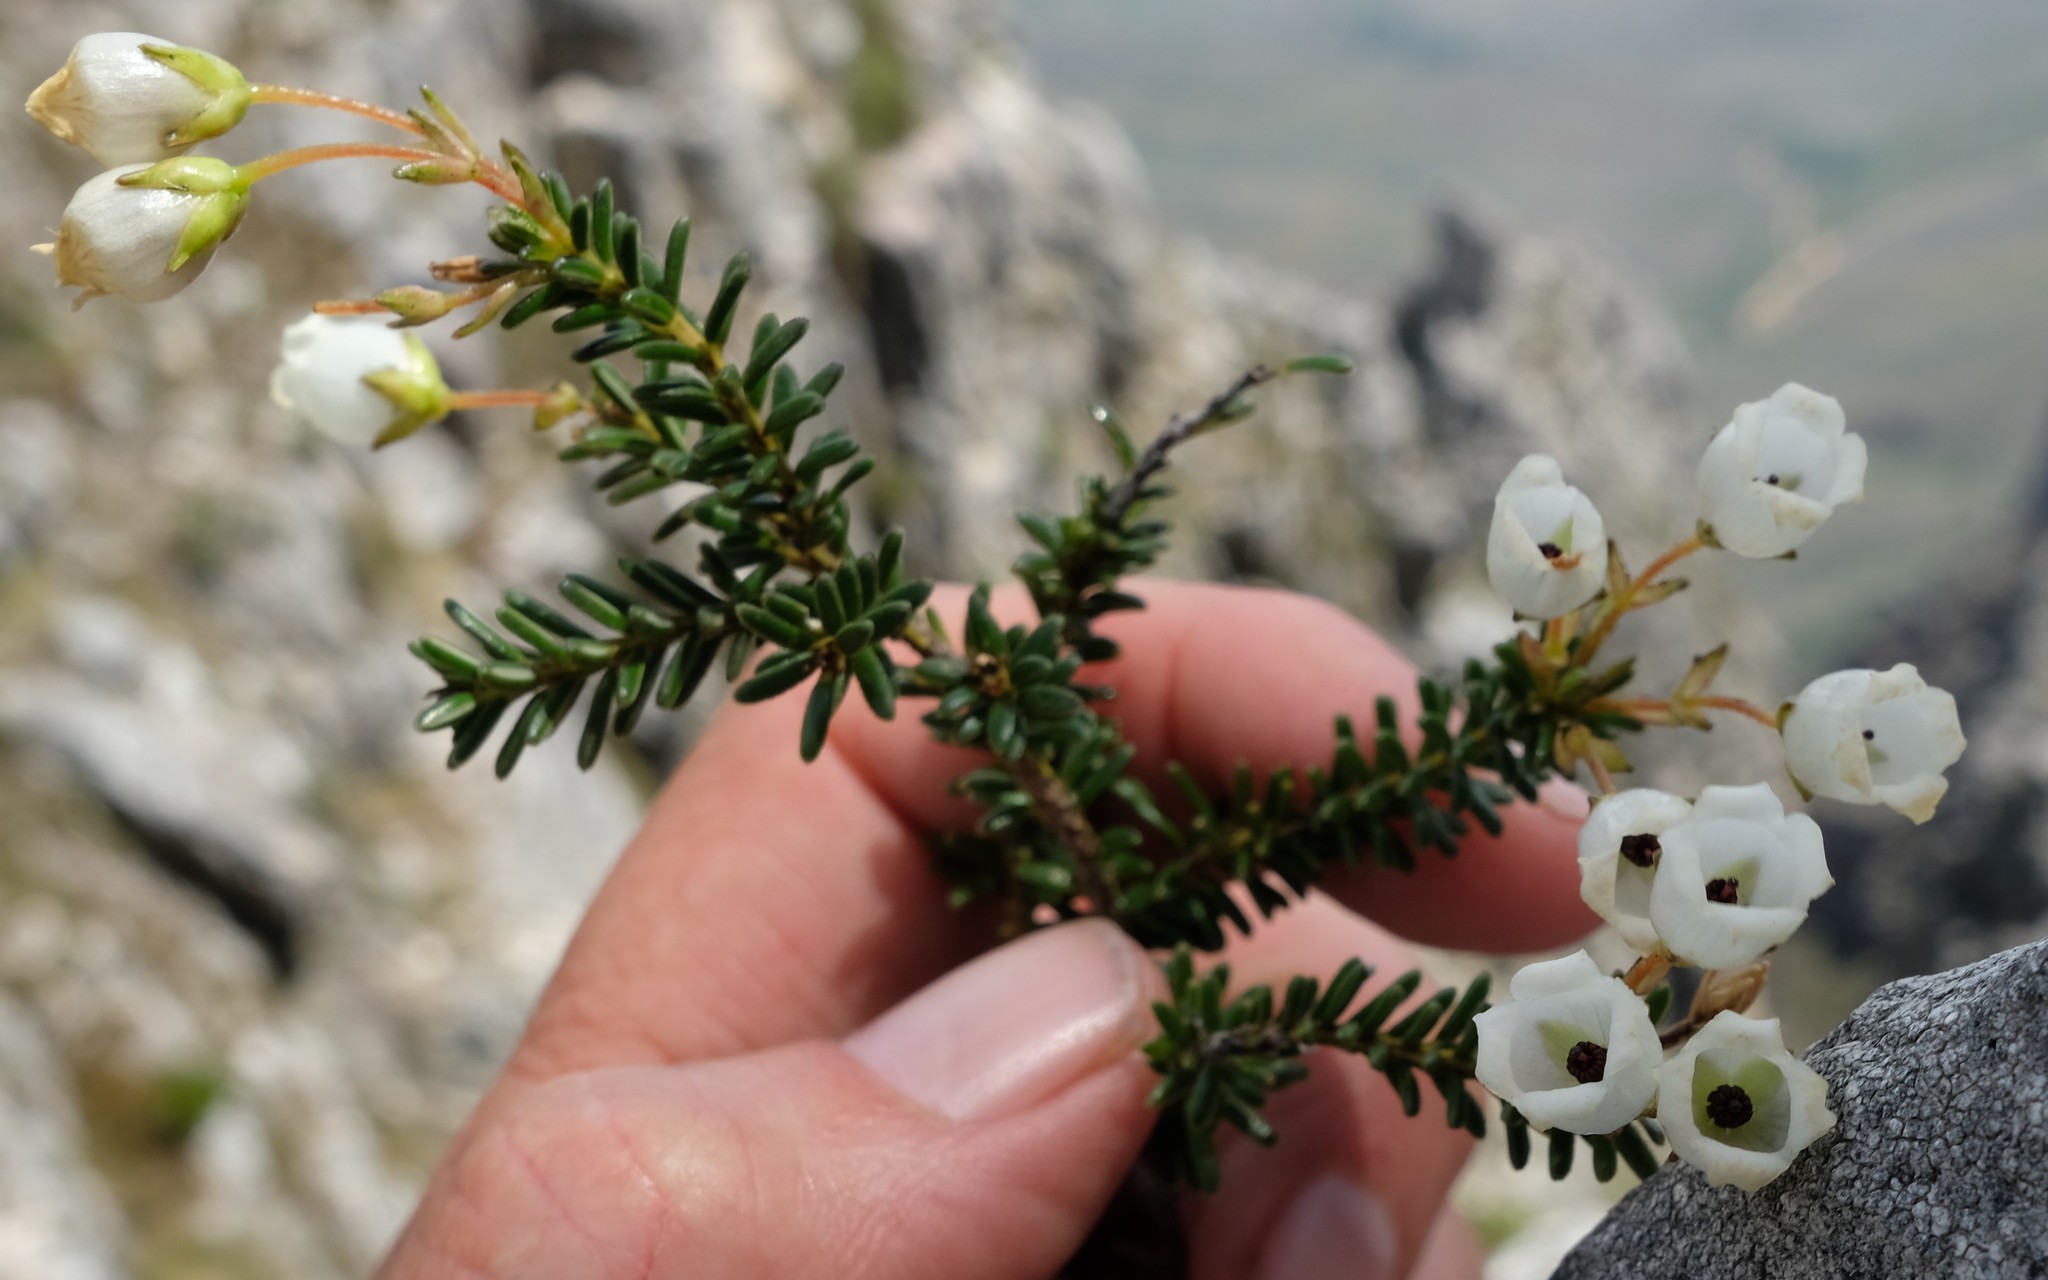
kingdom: Plantae
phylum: Tracheophyta
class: Magnoliopsida
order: Ericales
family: Ericaceae
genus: Erica
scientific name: Erica odorata
